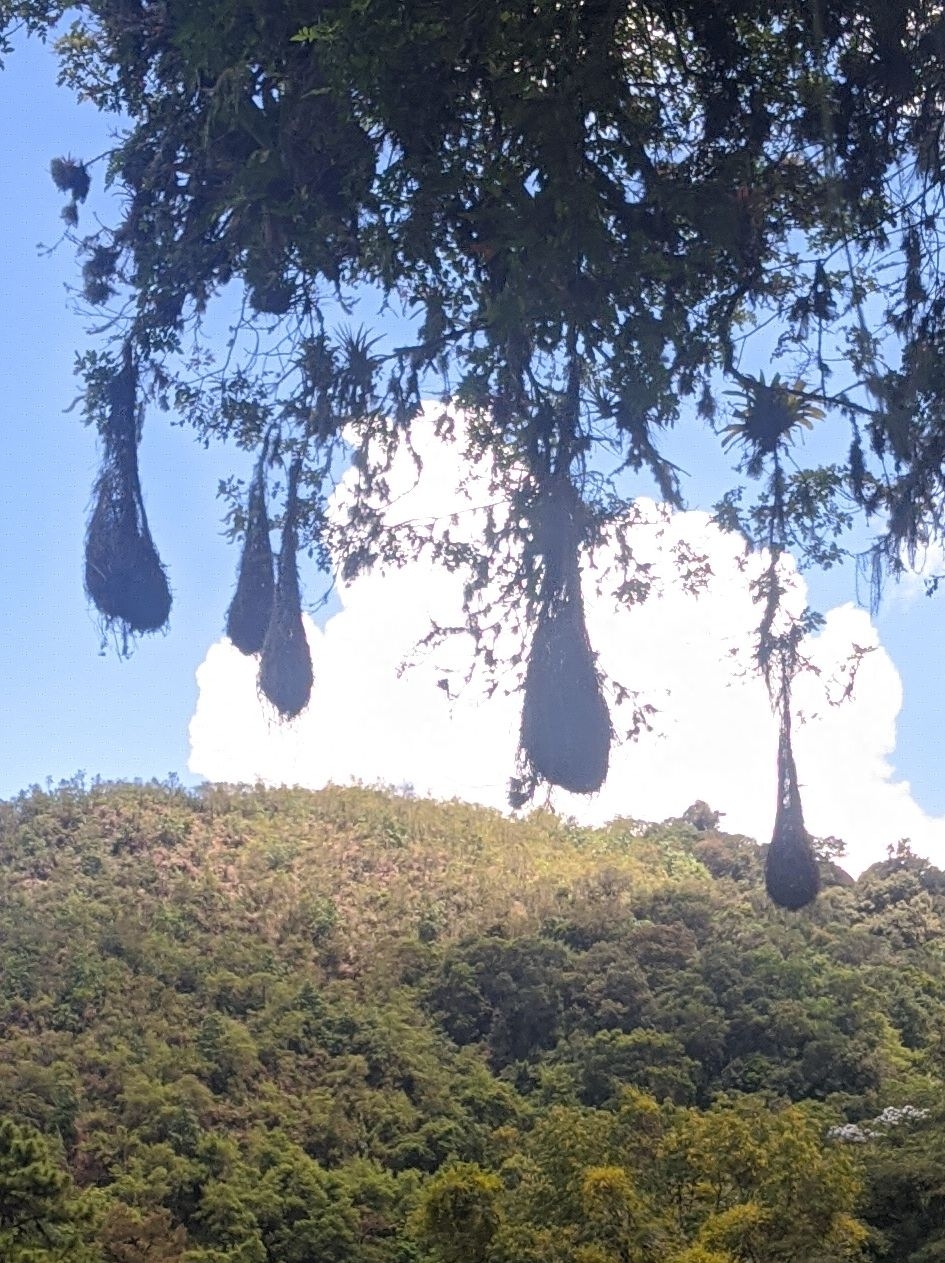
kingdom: Animalia
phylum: Chordata
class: Aves
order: Passeriformes
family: Icteridae
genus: Psarocolius
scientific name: Psarocolius decumanus
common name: Crested oropendola
